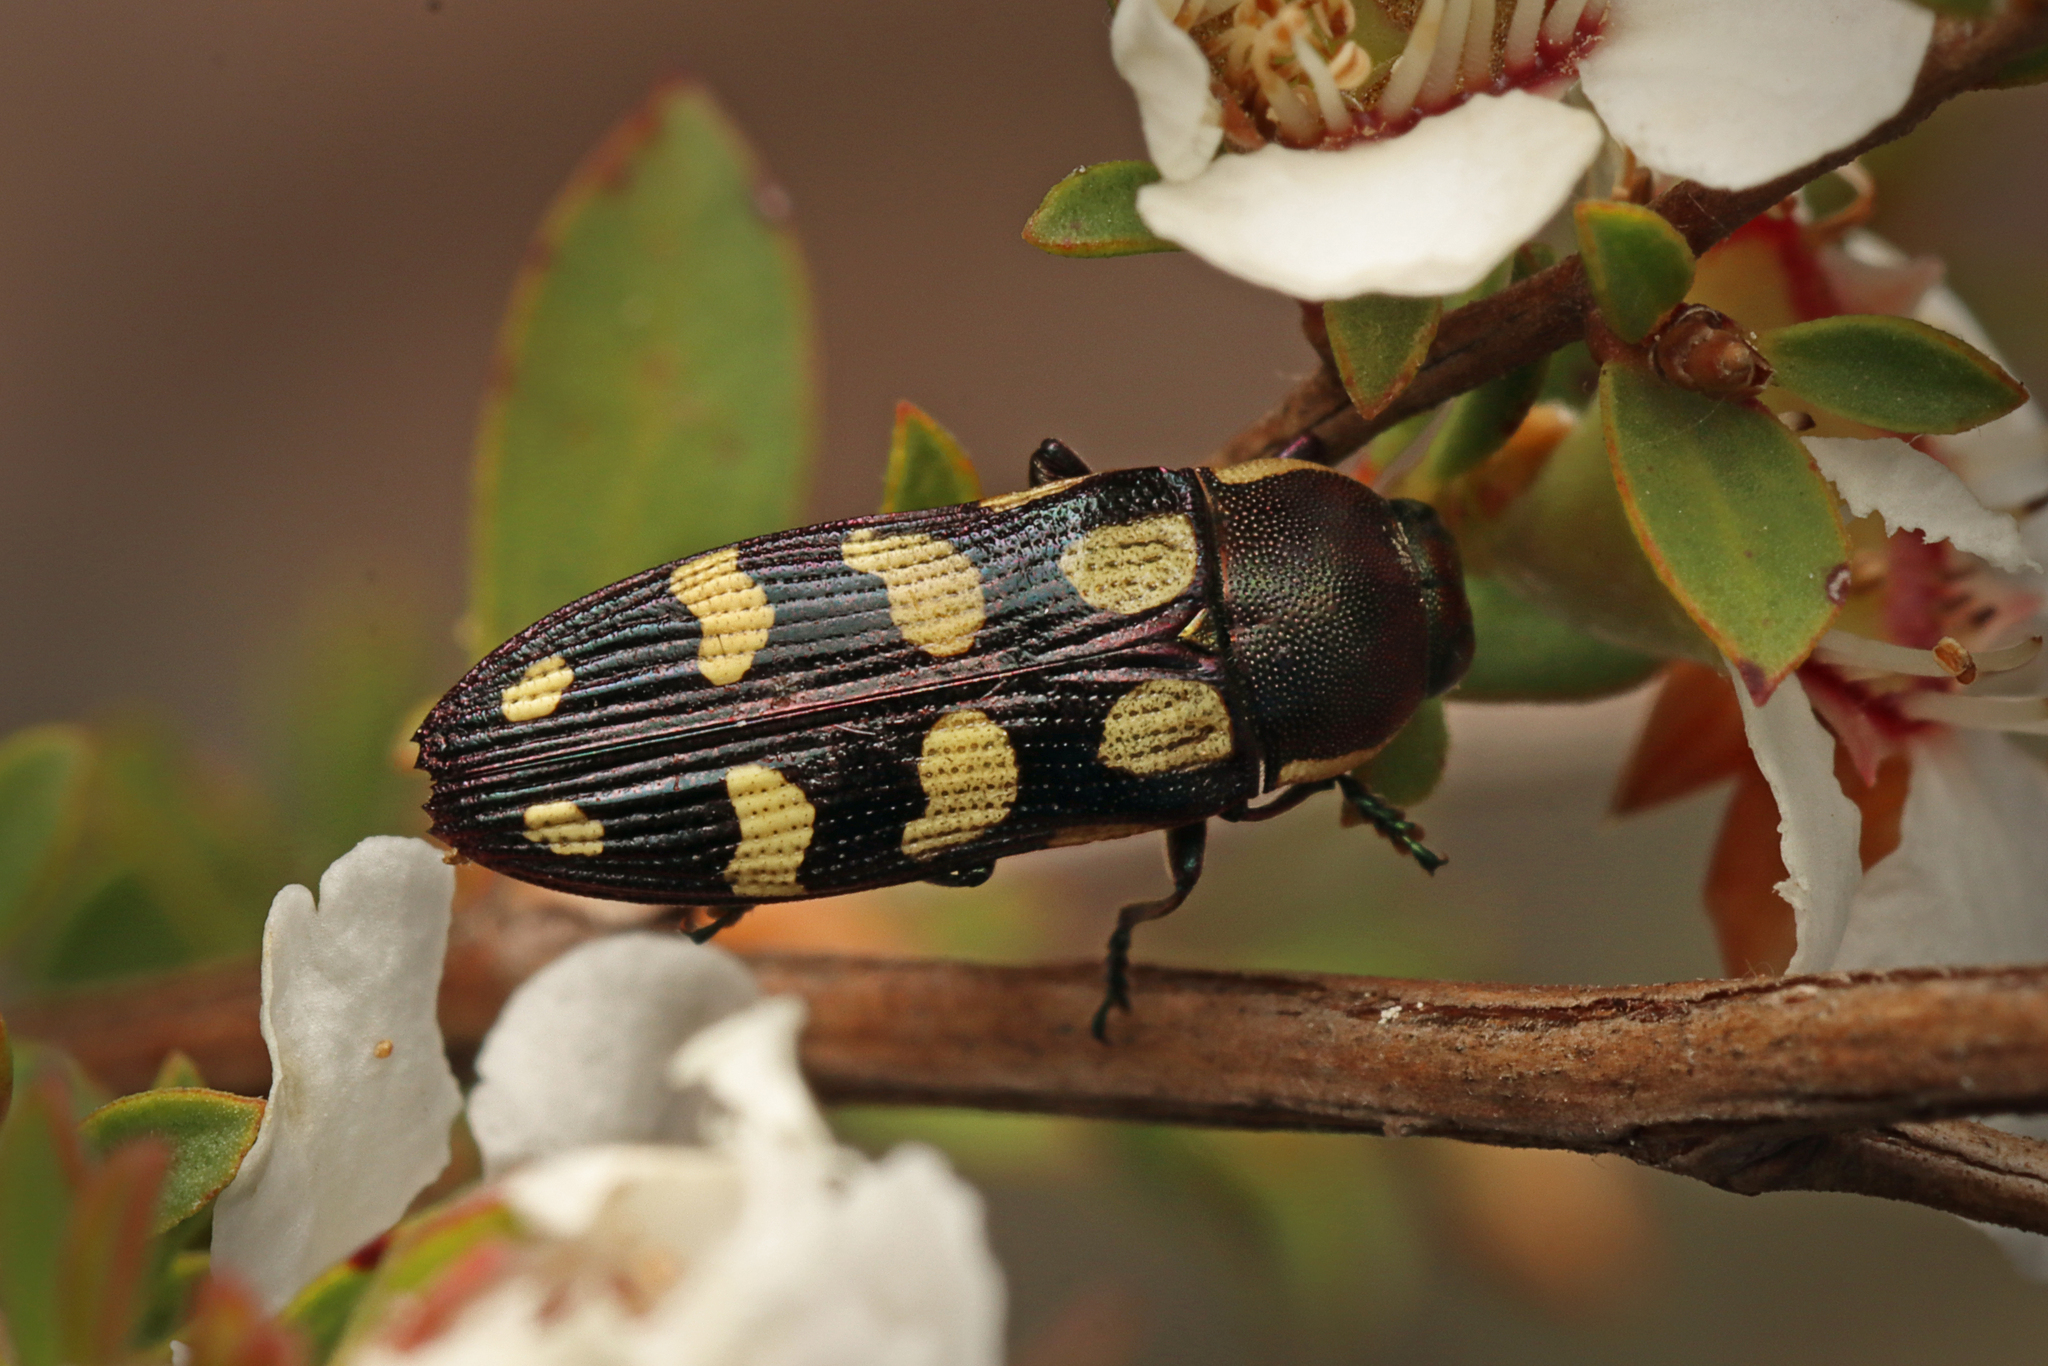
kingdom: Animalia
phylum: Arthropoda
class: Insecta
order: Coleoptera
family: Buprestidae
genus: Castiarina
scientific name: Castiarina decemmaculata
